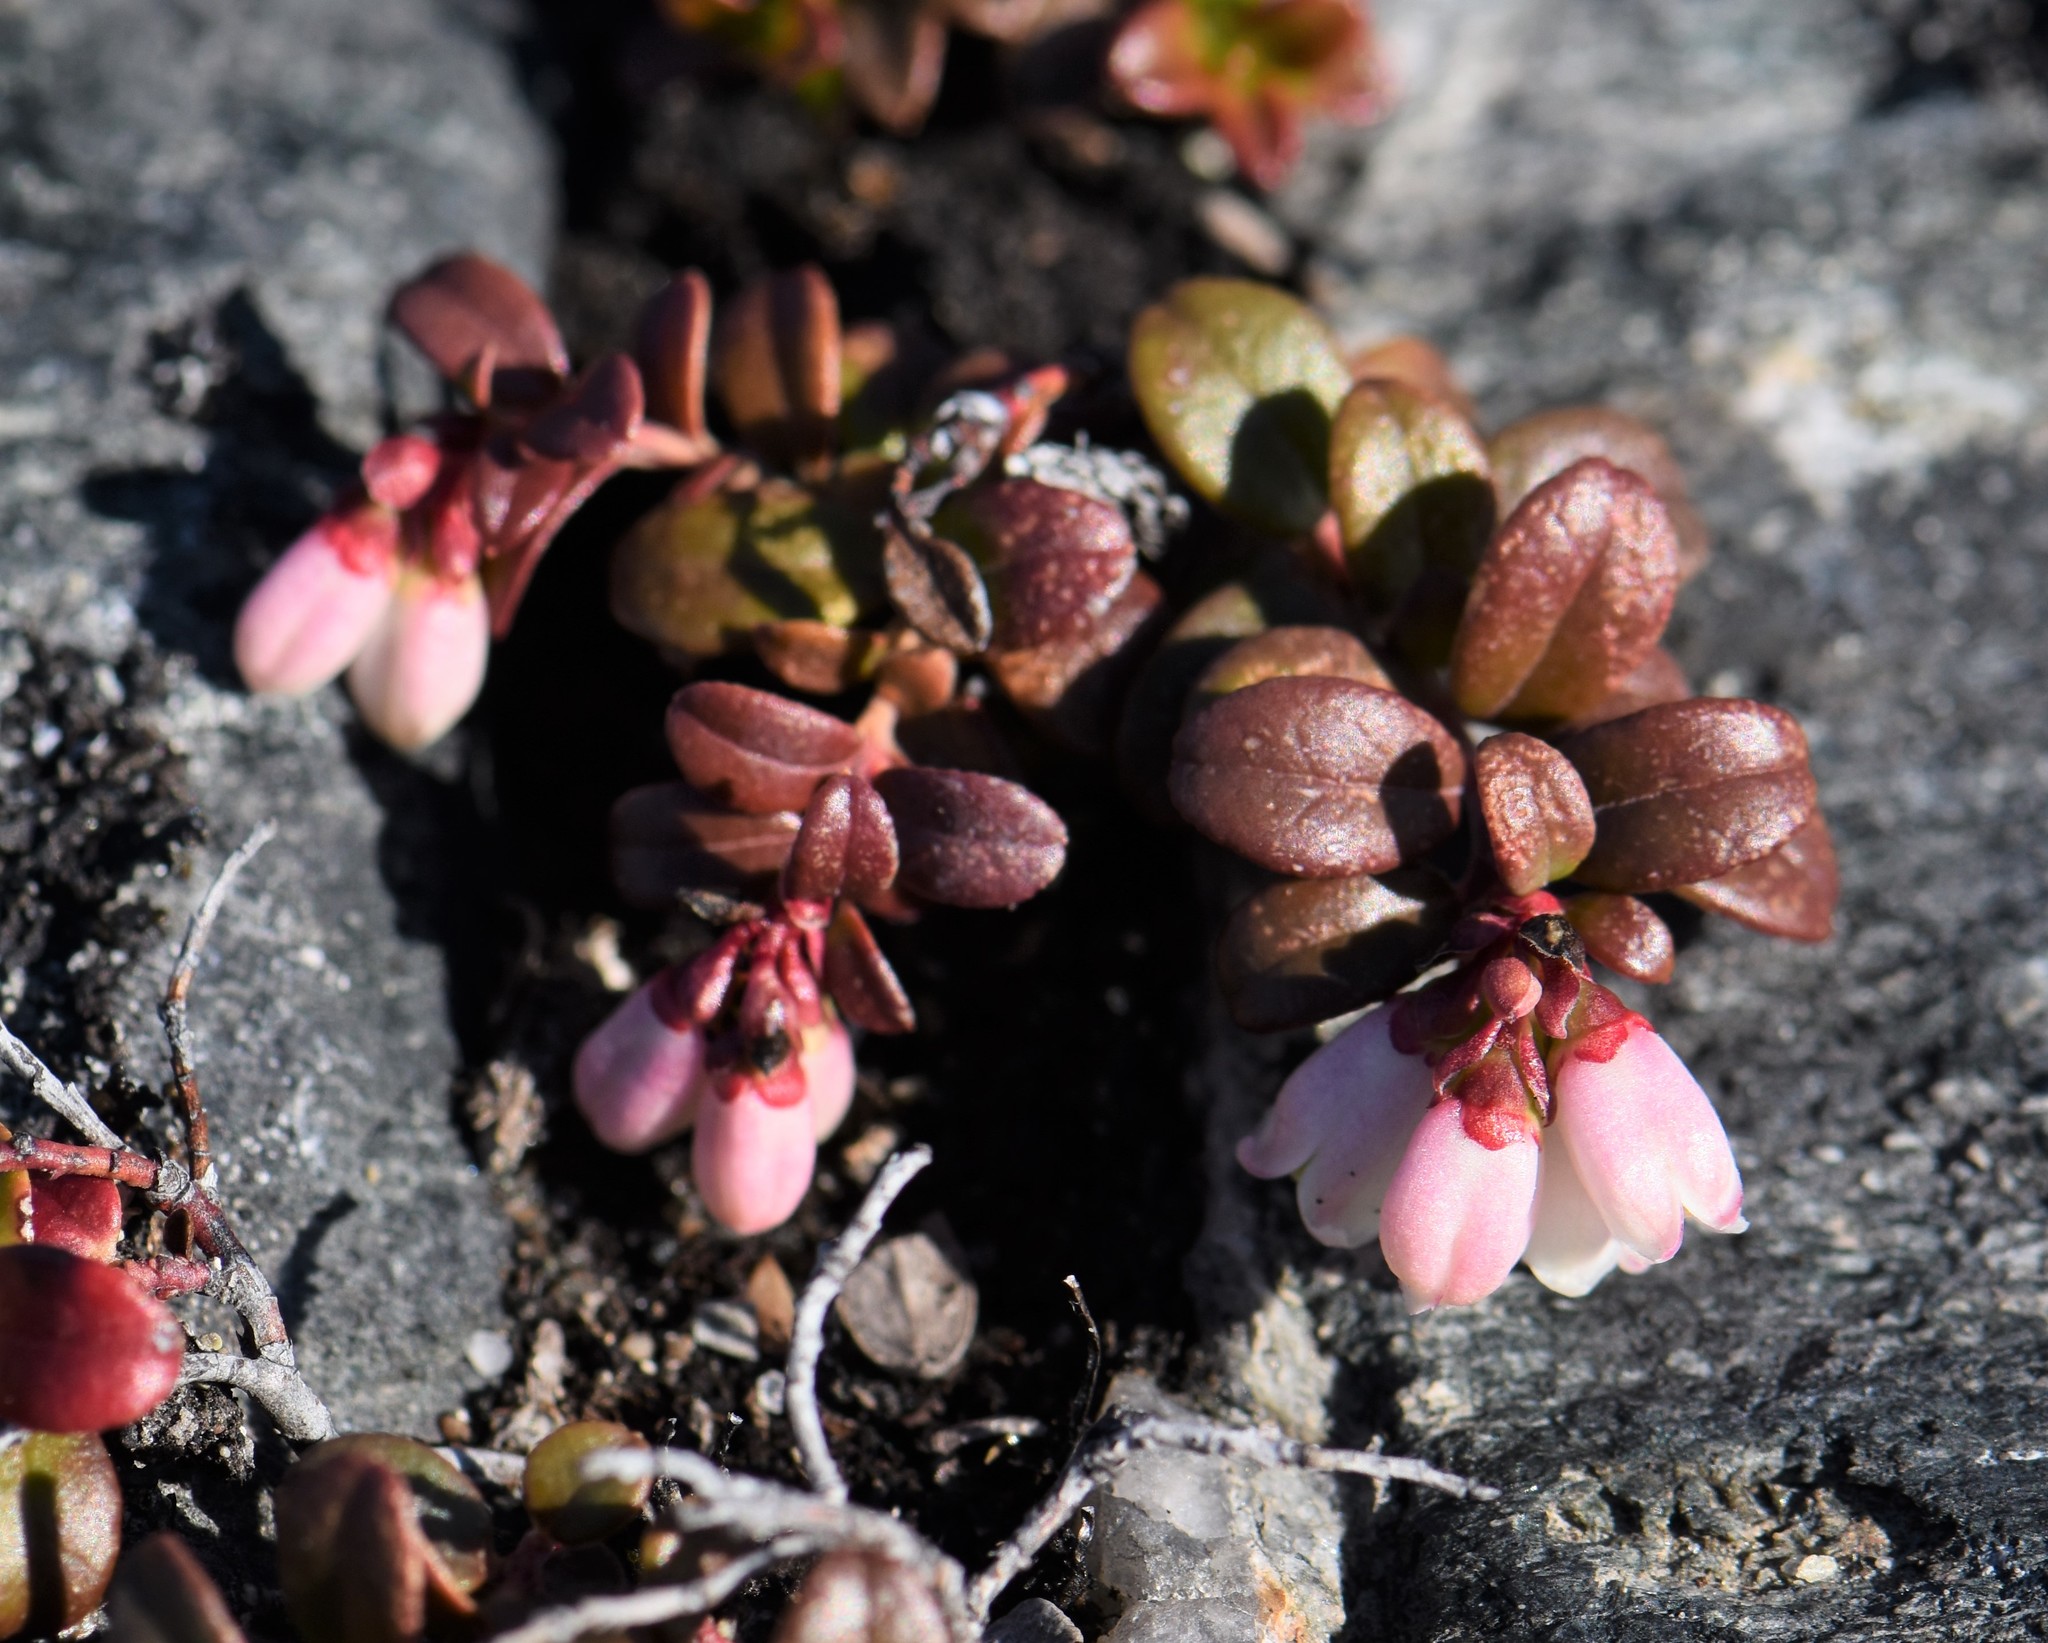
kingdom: Plantae
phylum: Tracheophyta
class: Magnoliopsida
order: Ericales
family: Ericaceae
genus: Vaccinium
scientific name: Vaccinium vitis-idaea
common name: Cowberry
